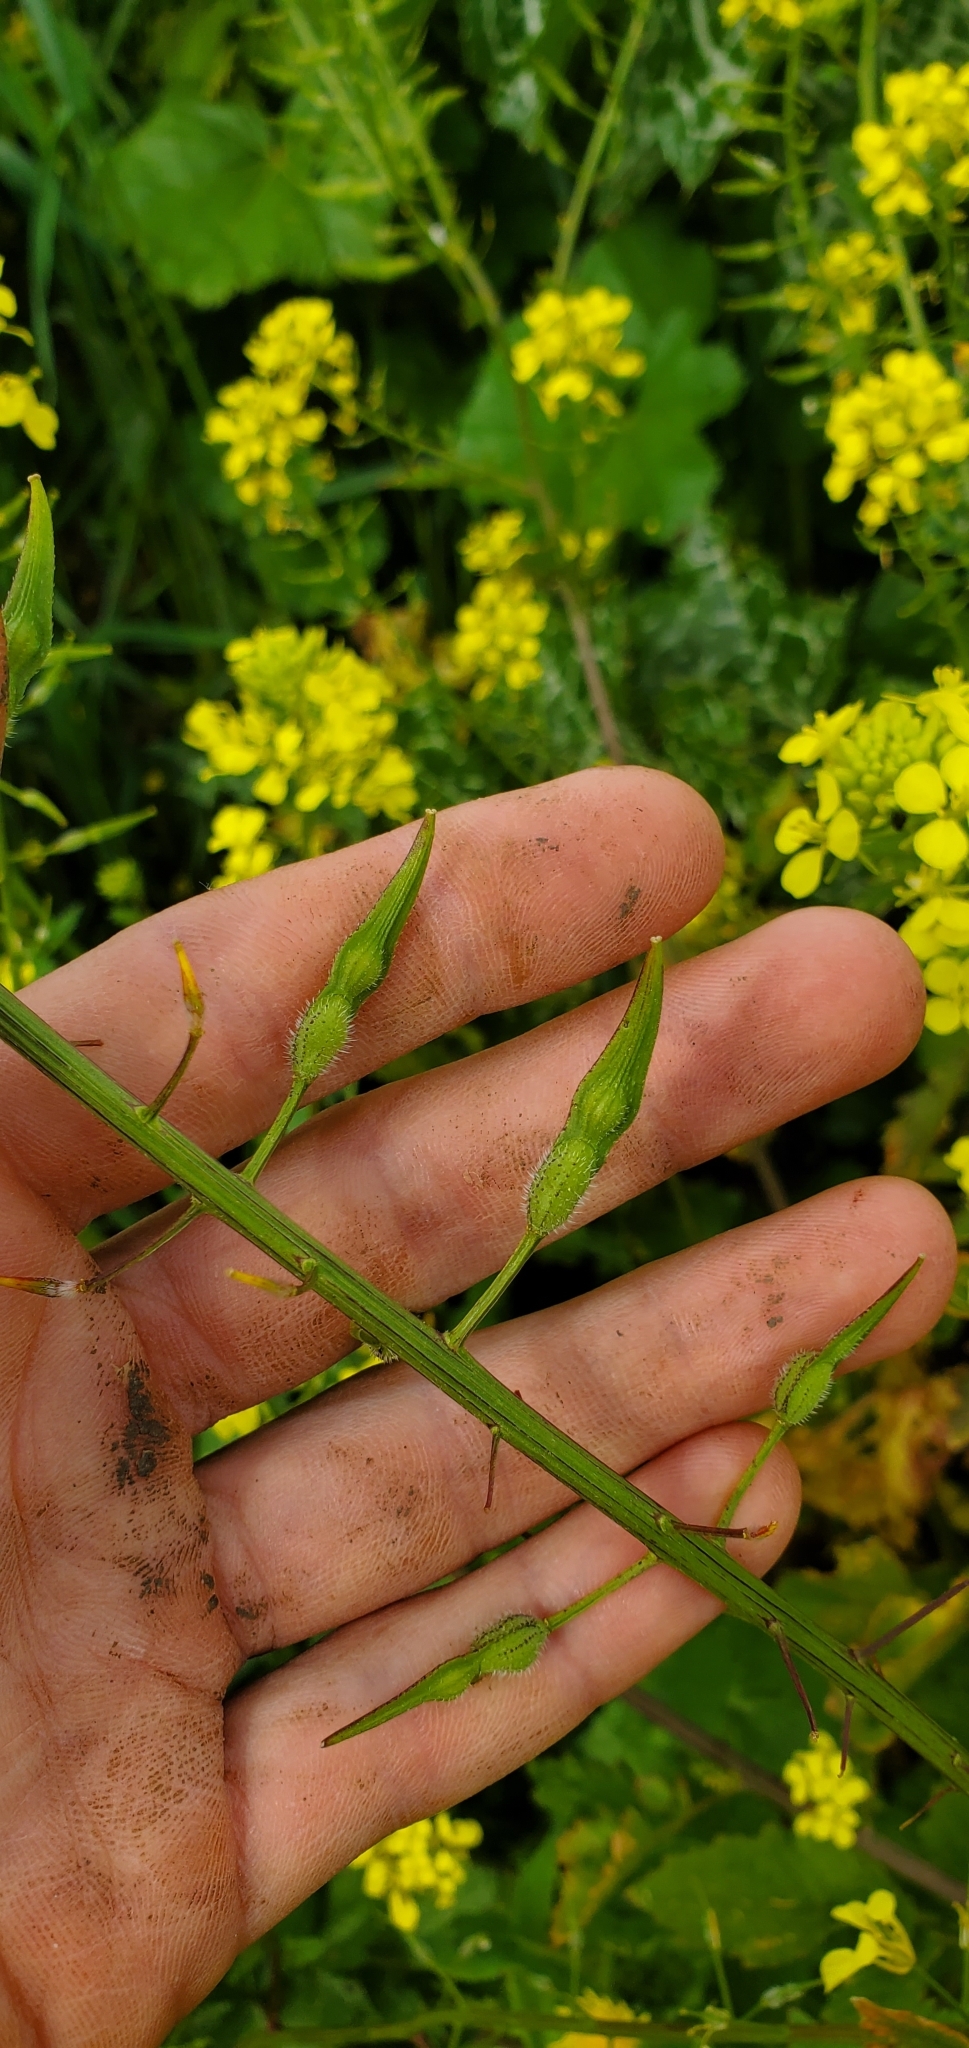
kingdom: Plantae
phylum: Tracheophyta
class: Magnoliopsida
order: Brassicales
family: Brassicaceae
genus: Sinapis
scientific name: Sinapis alba
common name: White mustard
